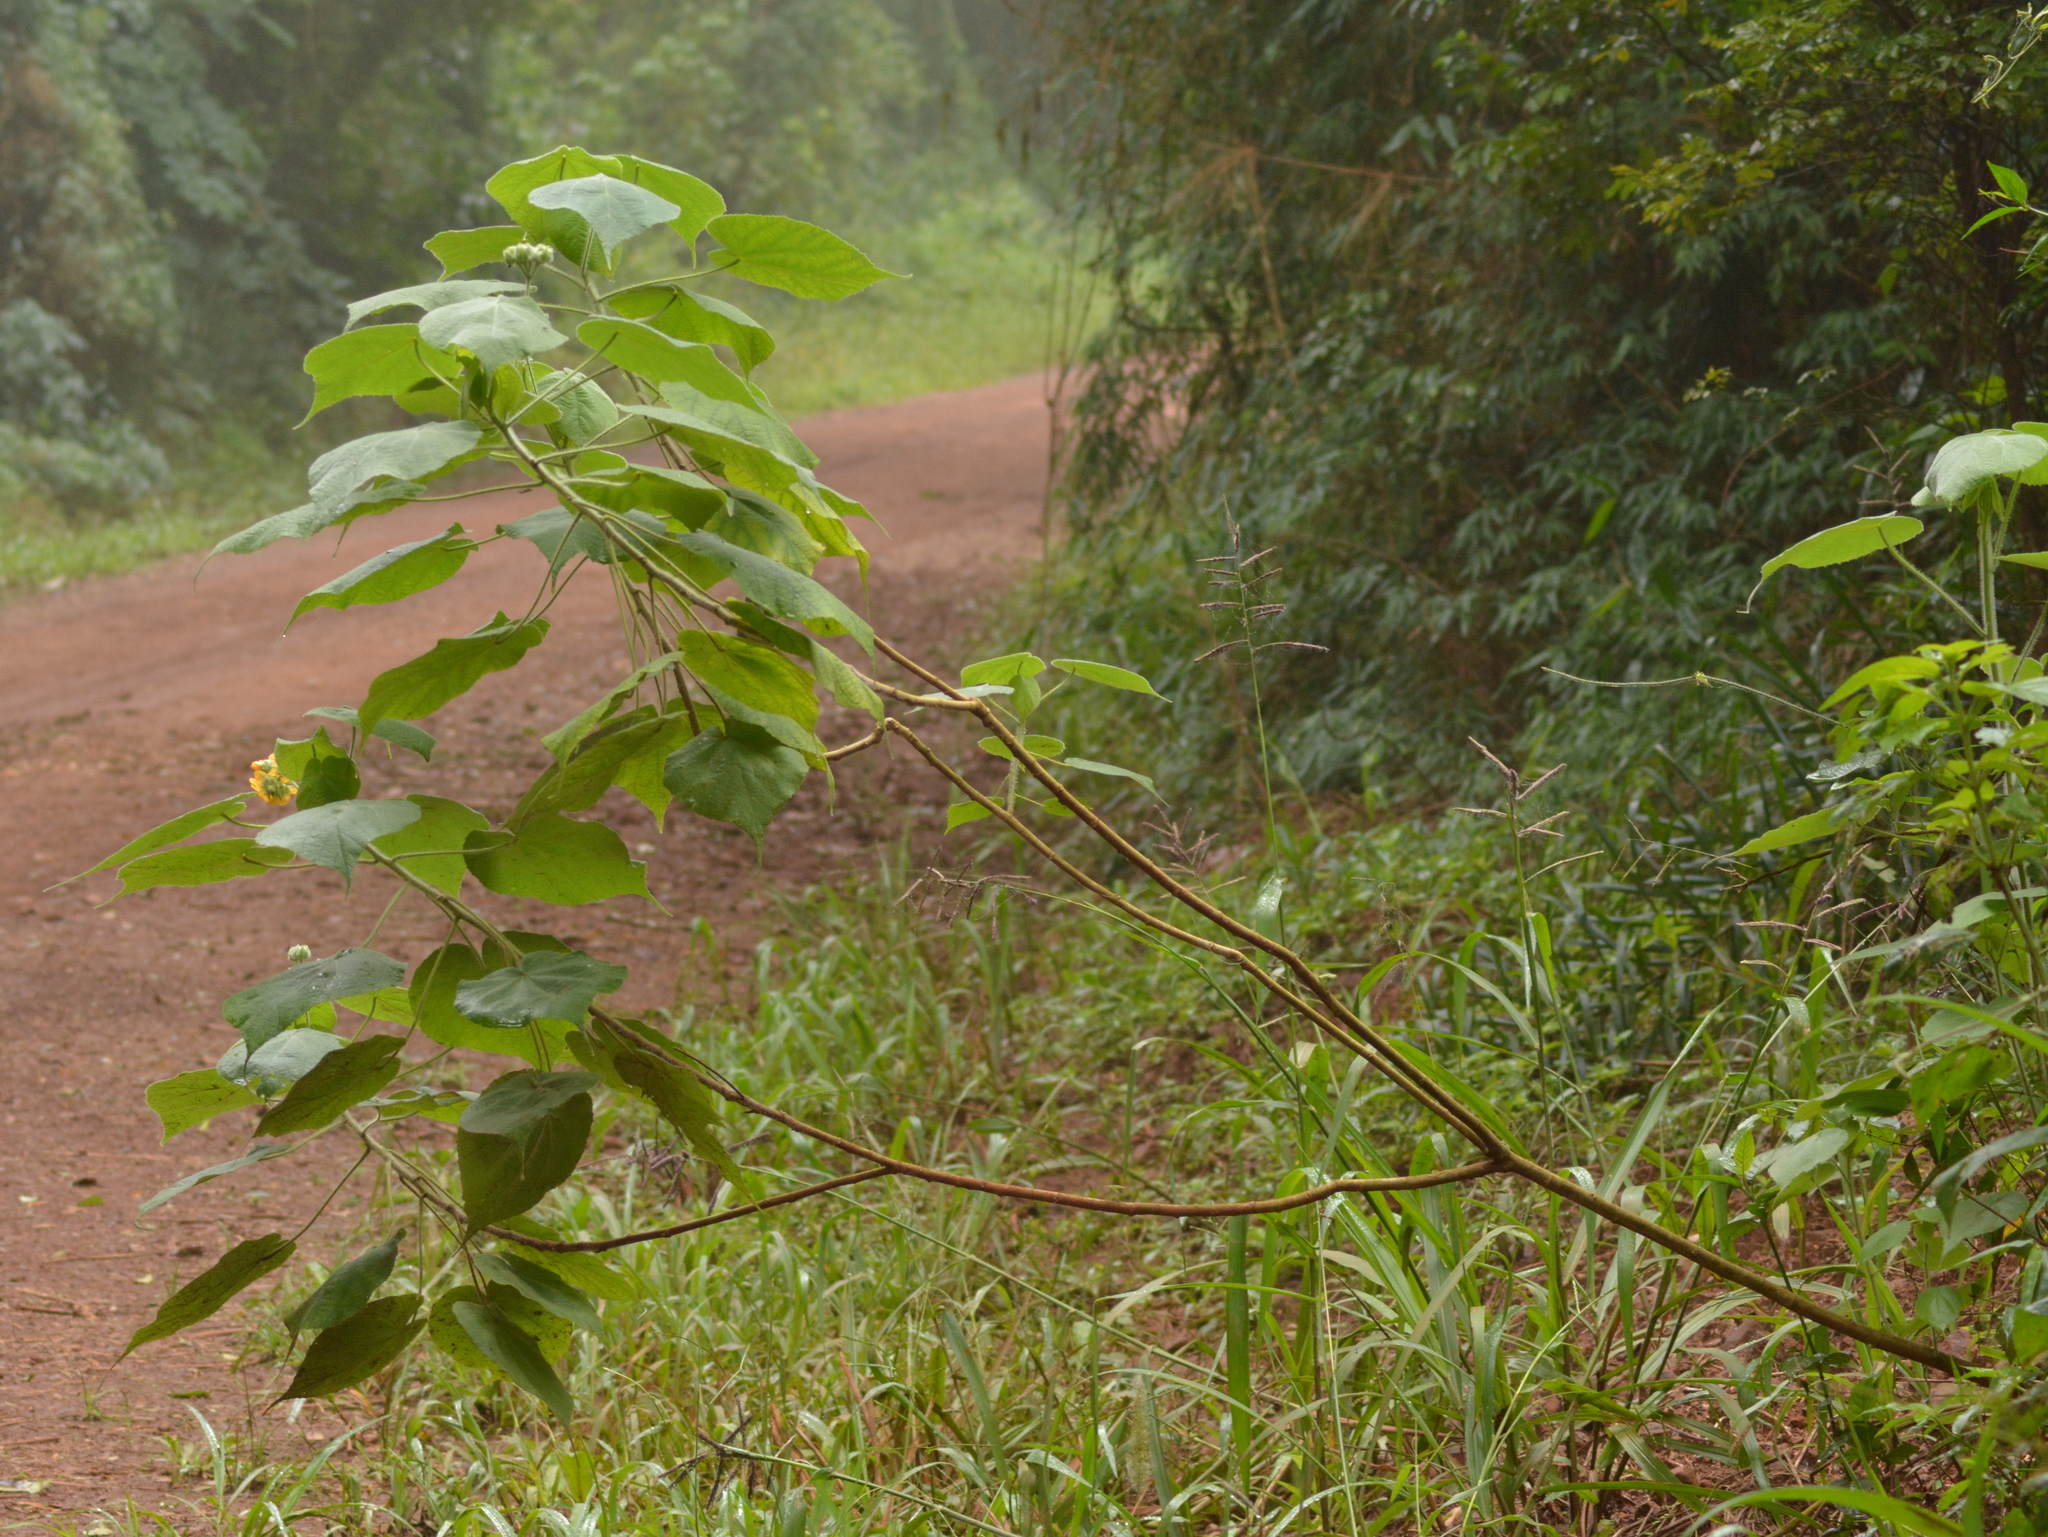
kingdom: Plantae
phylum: Tracheophyta
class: Magnoliopsida
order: Malvales
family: Malvaceae
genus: Abutilon
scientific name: Abutilon umbelliflorum
